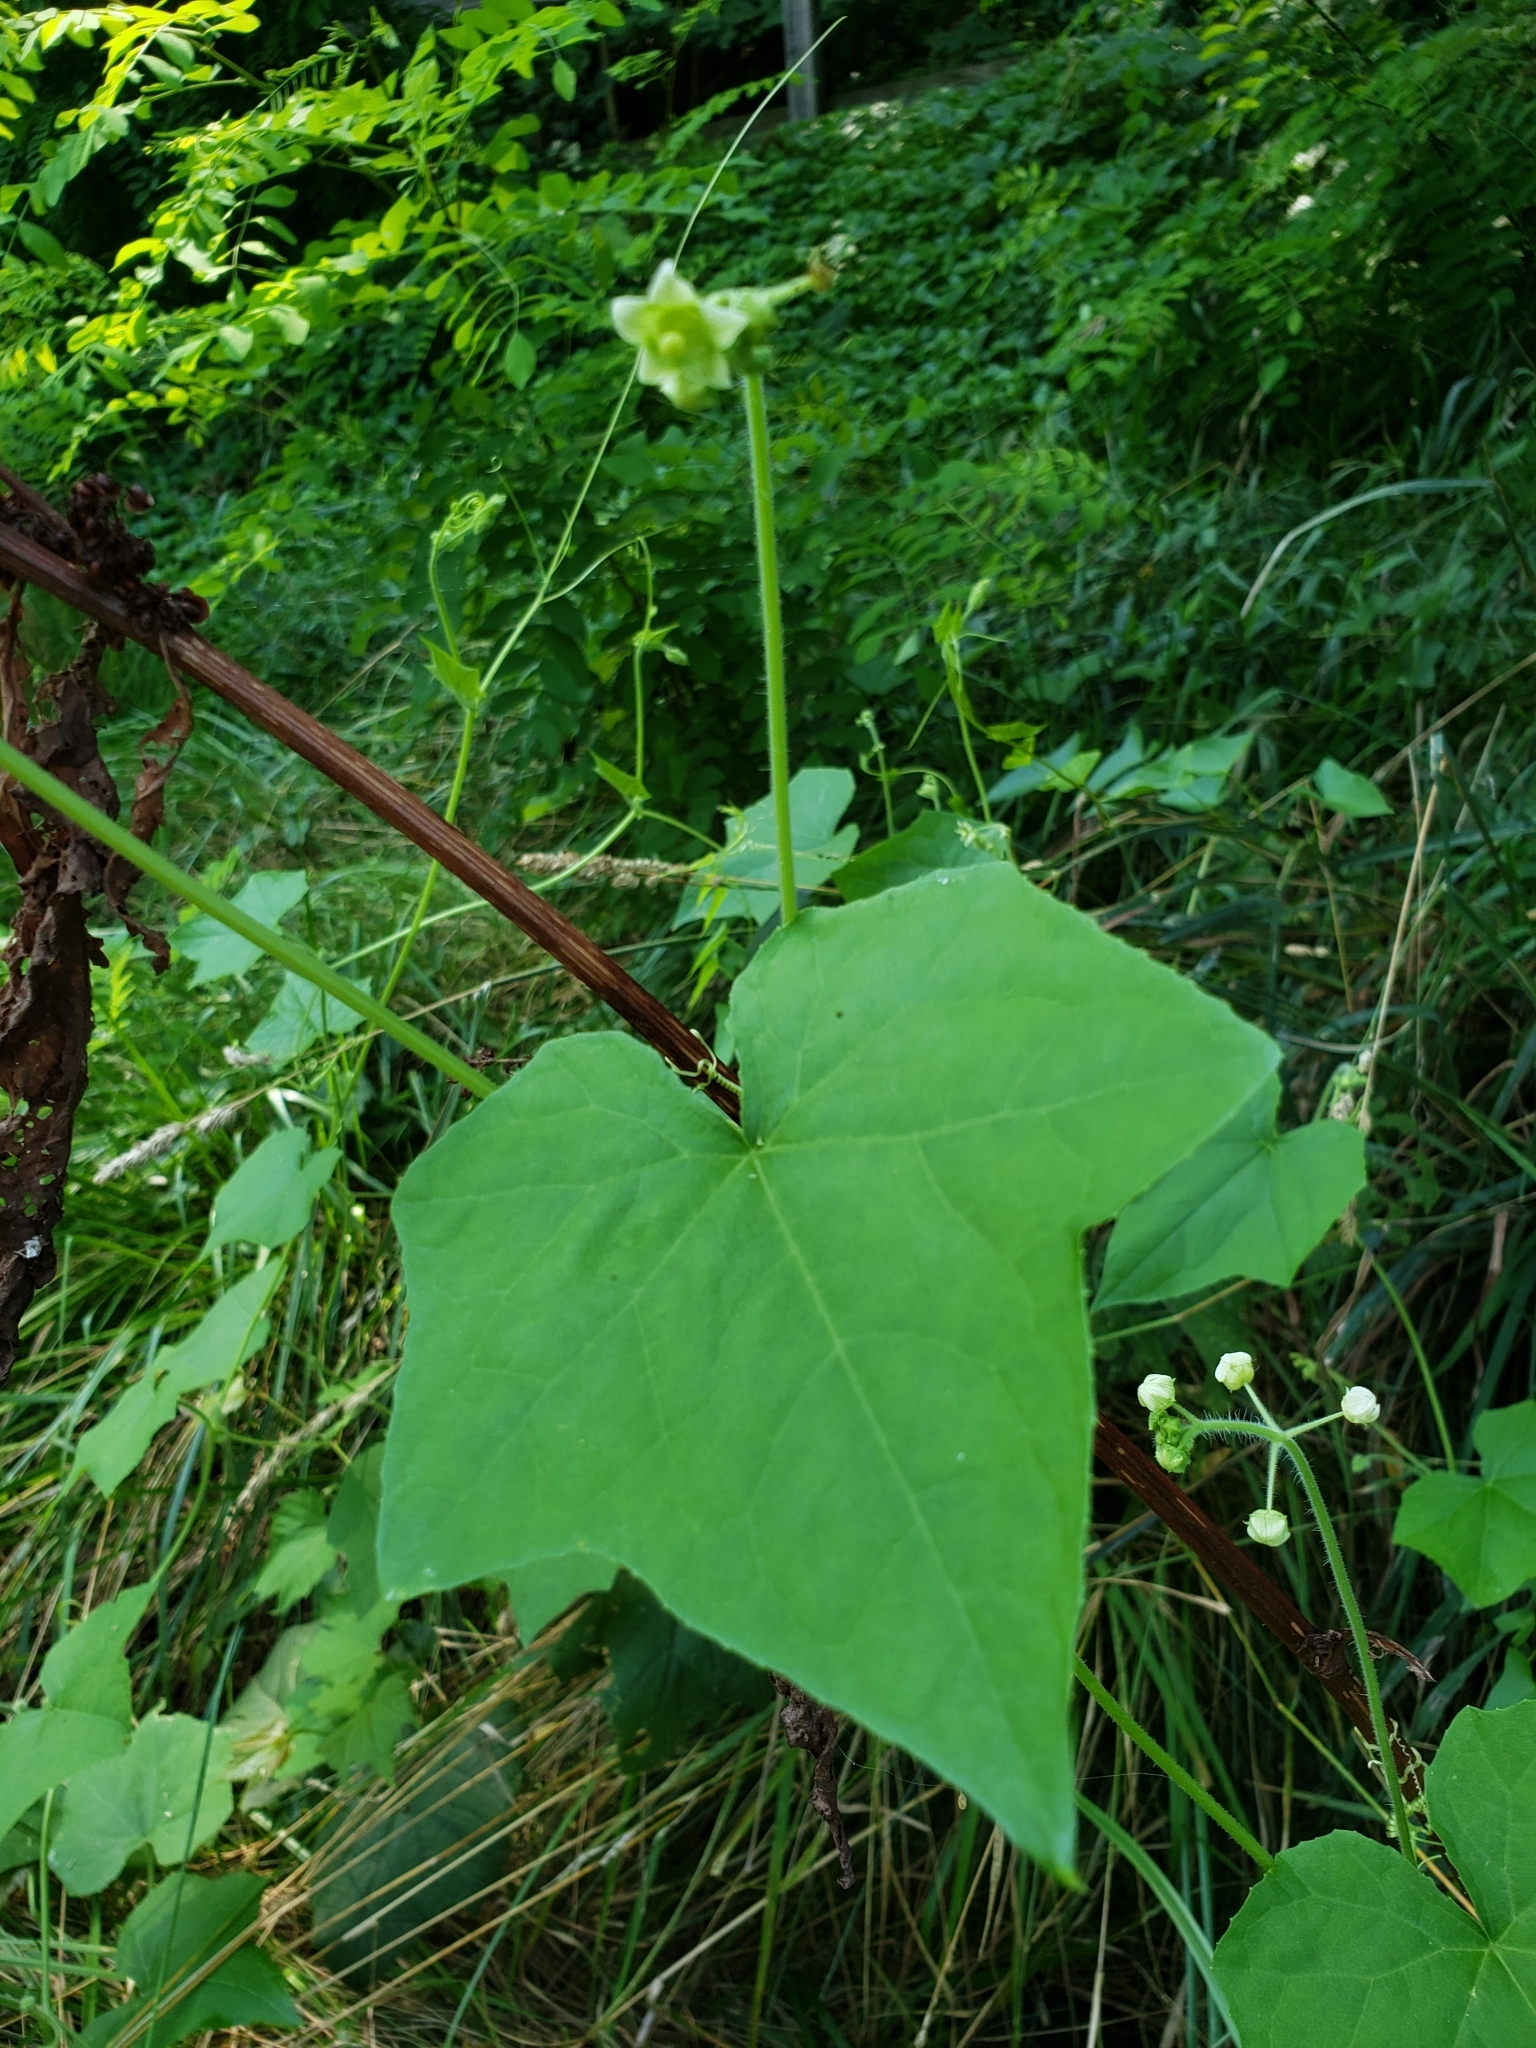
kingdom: Plantae
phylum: Tracheophyta
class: Magnoliopsida
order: Cucurbitales
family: Cucurbitaceae
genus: Sicyos
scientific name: Sicyos angulatus
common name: Angled burr cucumber
